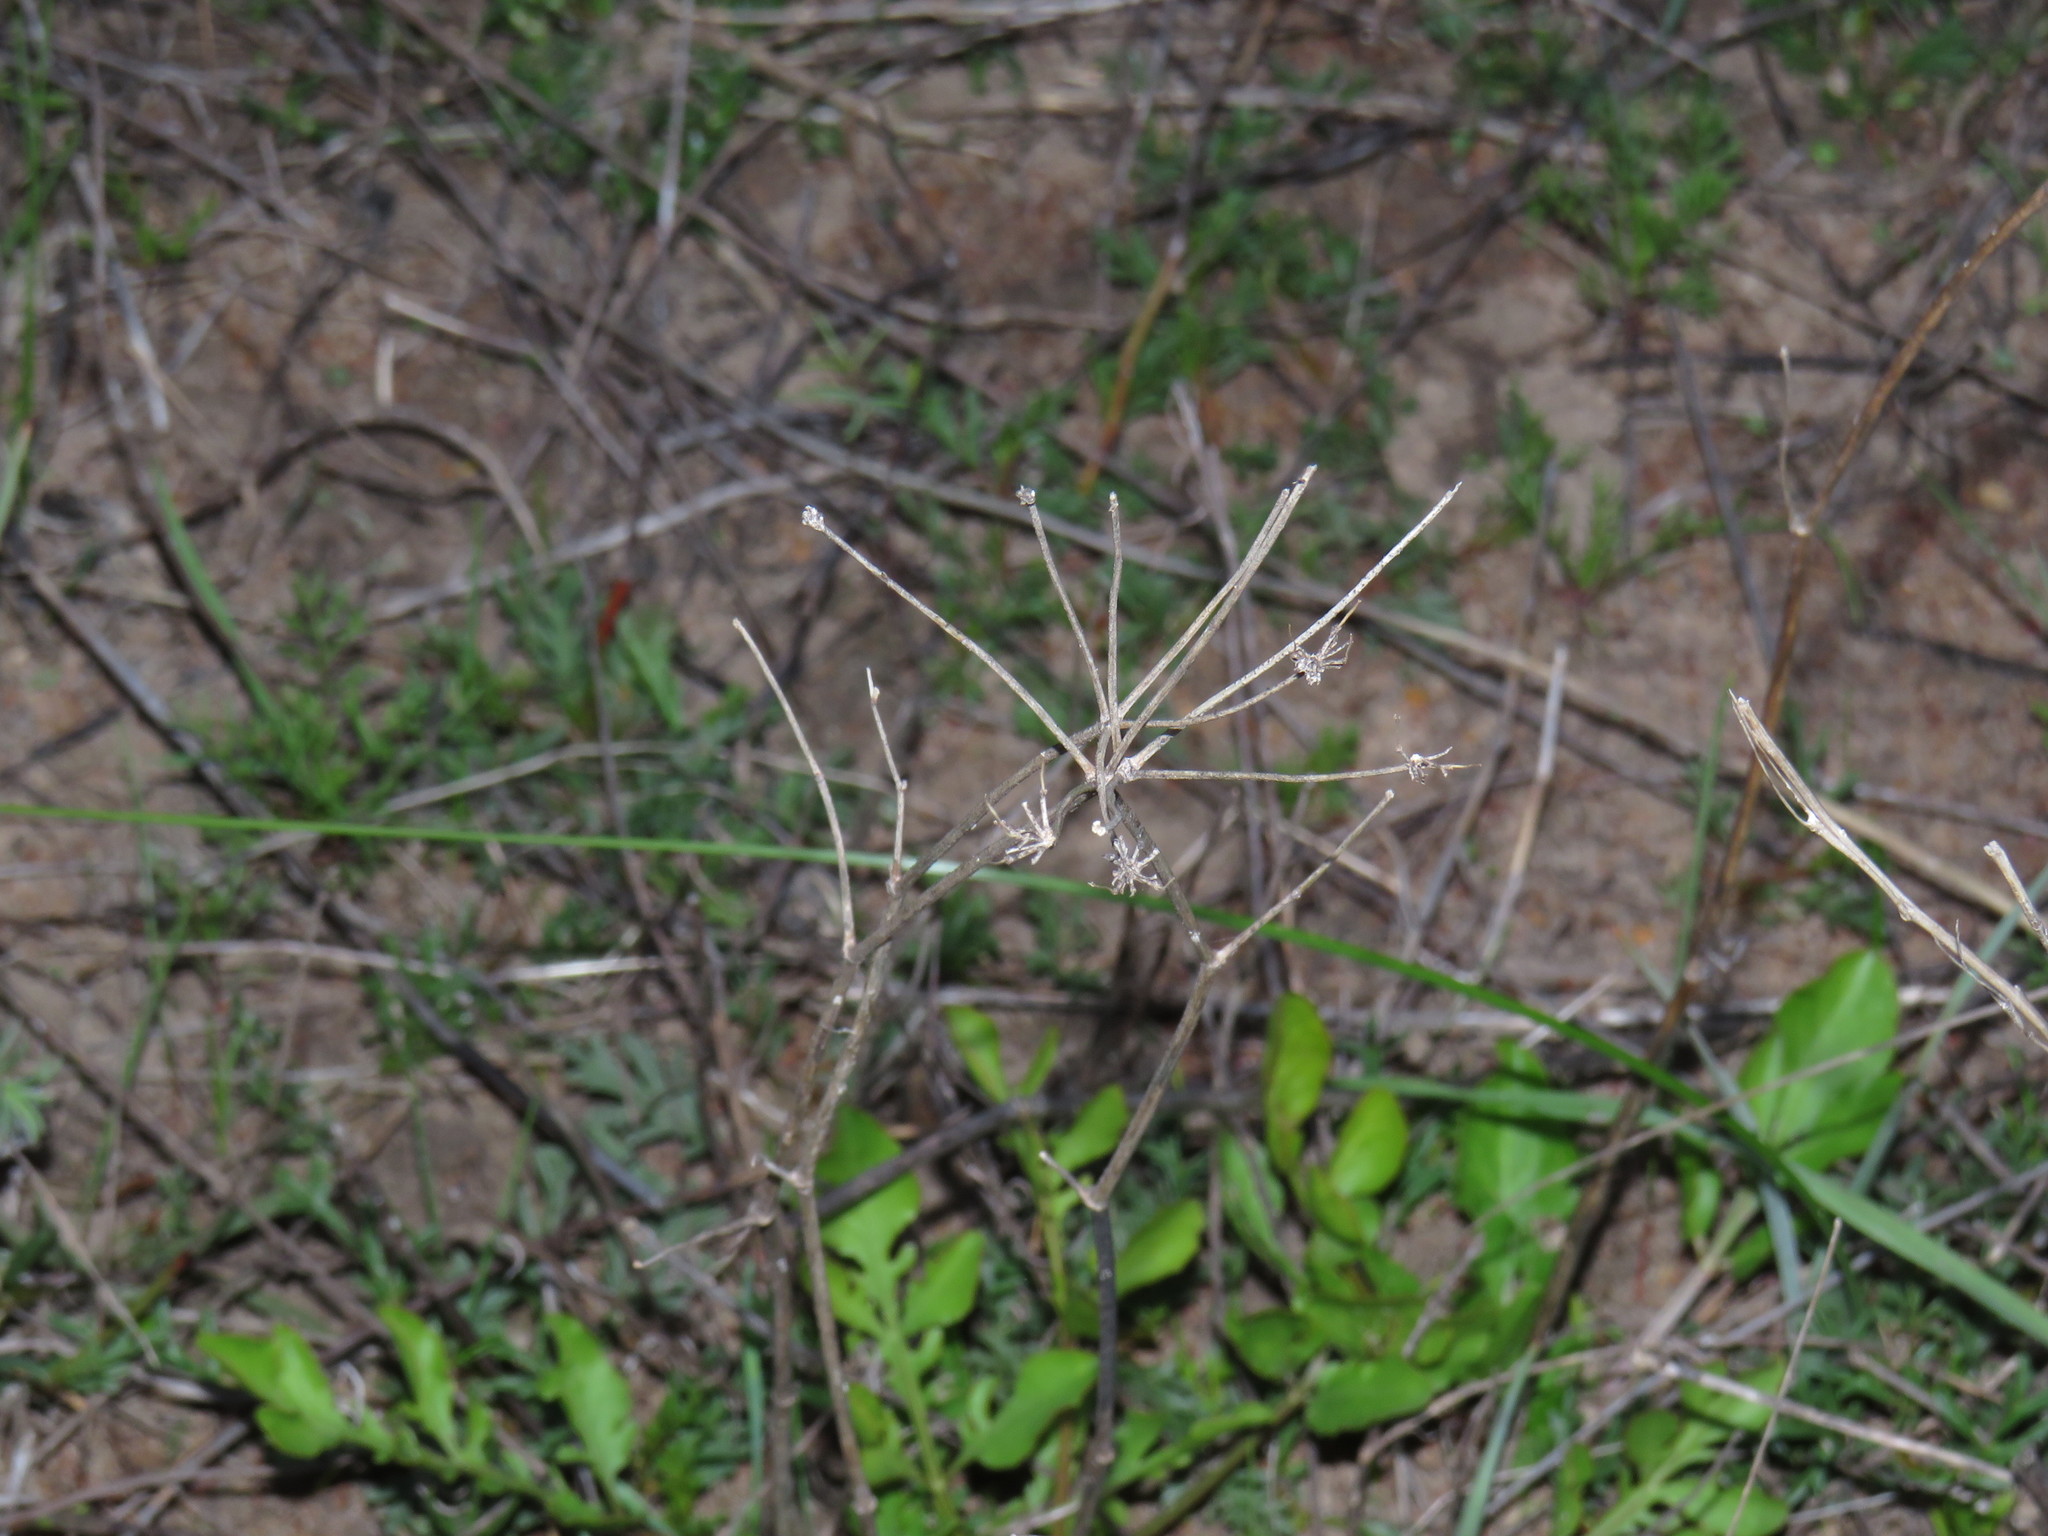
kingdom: Plantae
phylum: Tracheophyta
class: Magnoliopsida
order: Apiales
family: Apiaceae
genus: Lichtensteinia
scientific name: Lichtensteinia obscura
